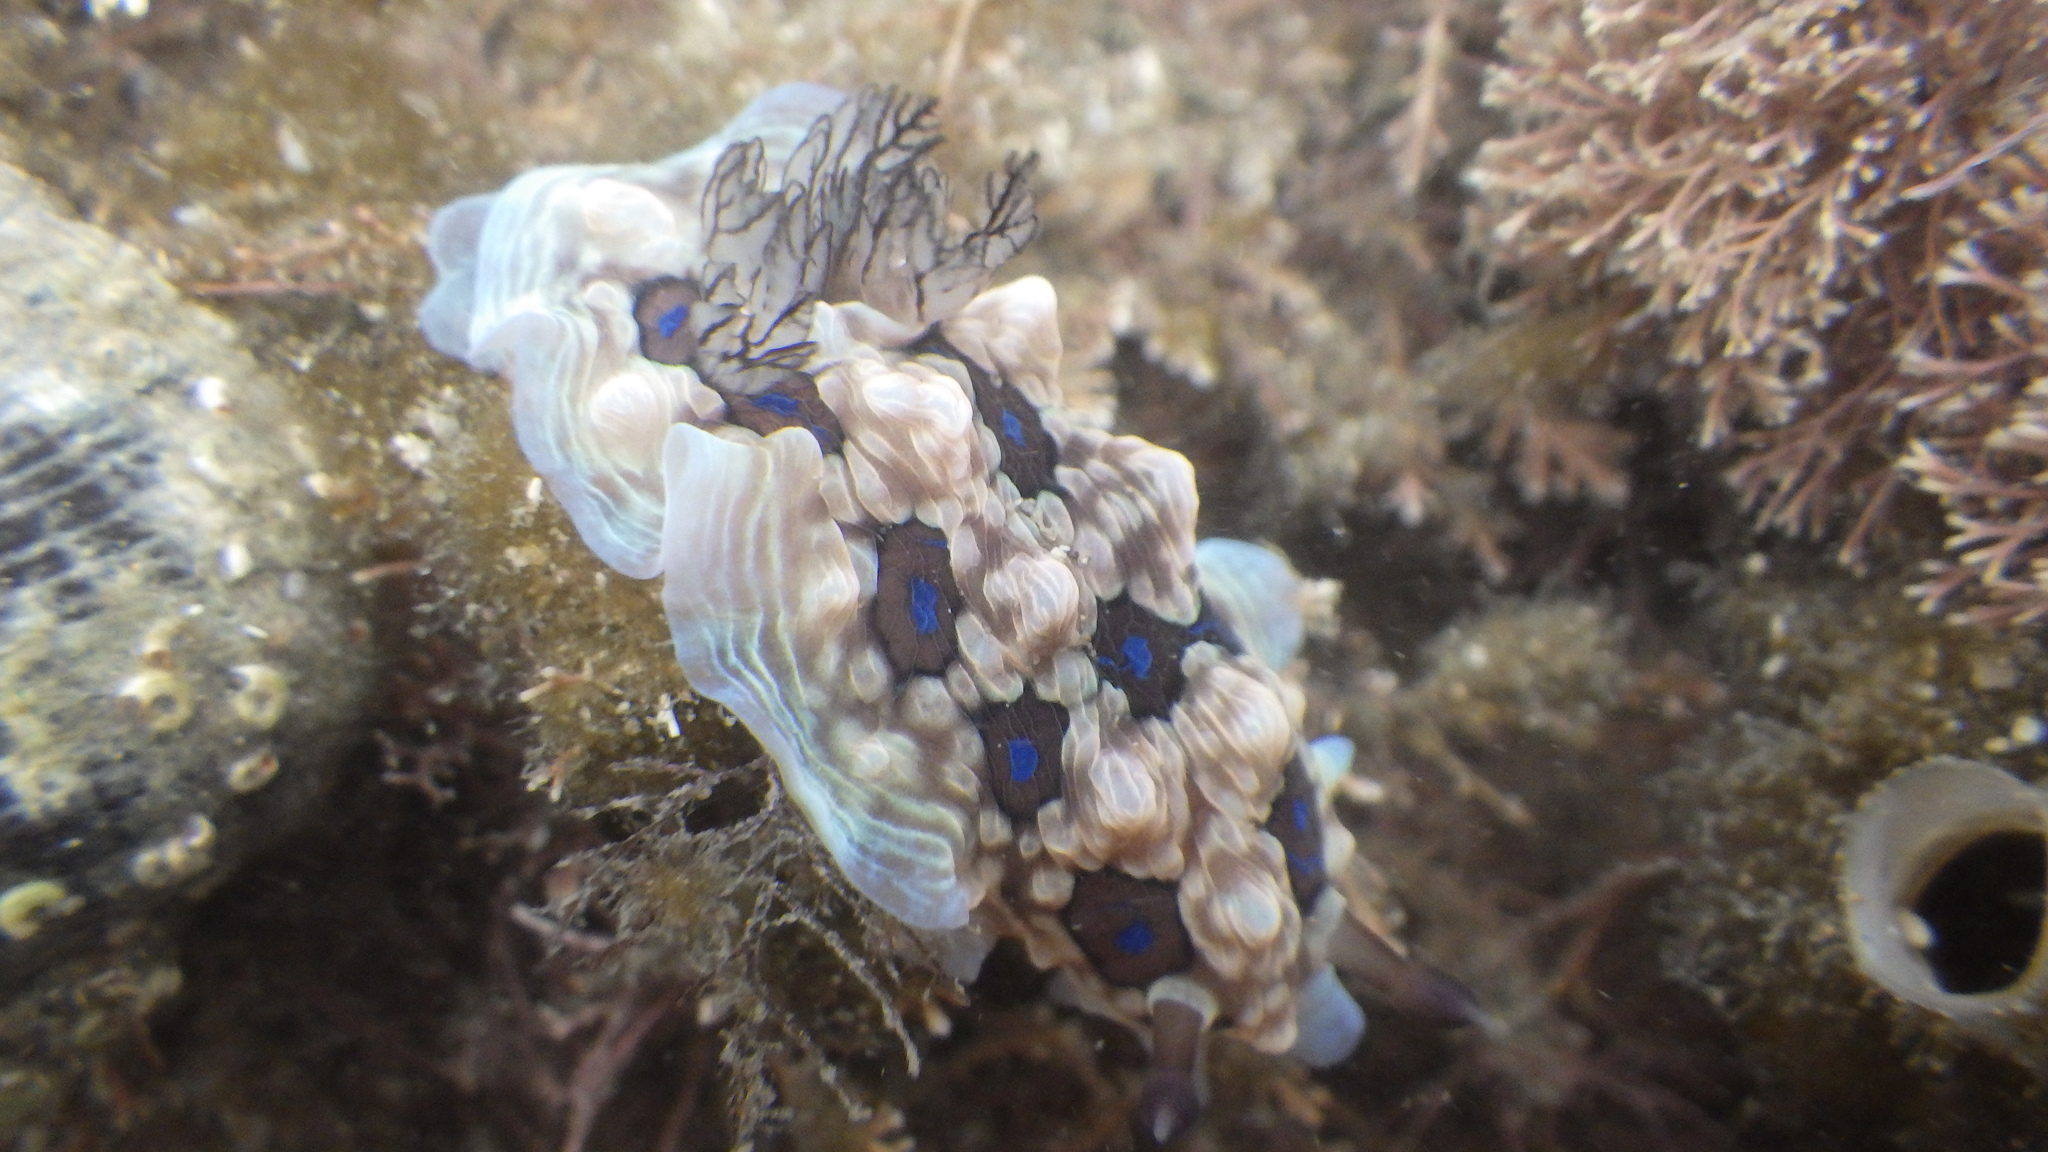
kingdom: Animalia
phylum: Mollusca
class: Gastropoda
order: Nudibranchia
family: Dendrodorididae
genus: Dendrodoris
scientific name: Dendrodoris krusensternii
